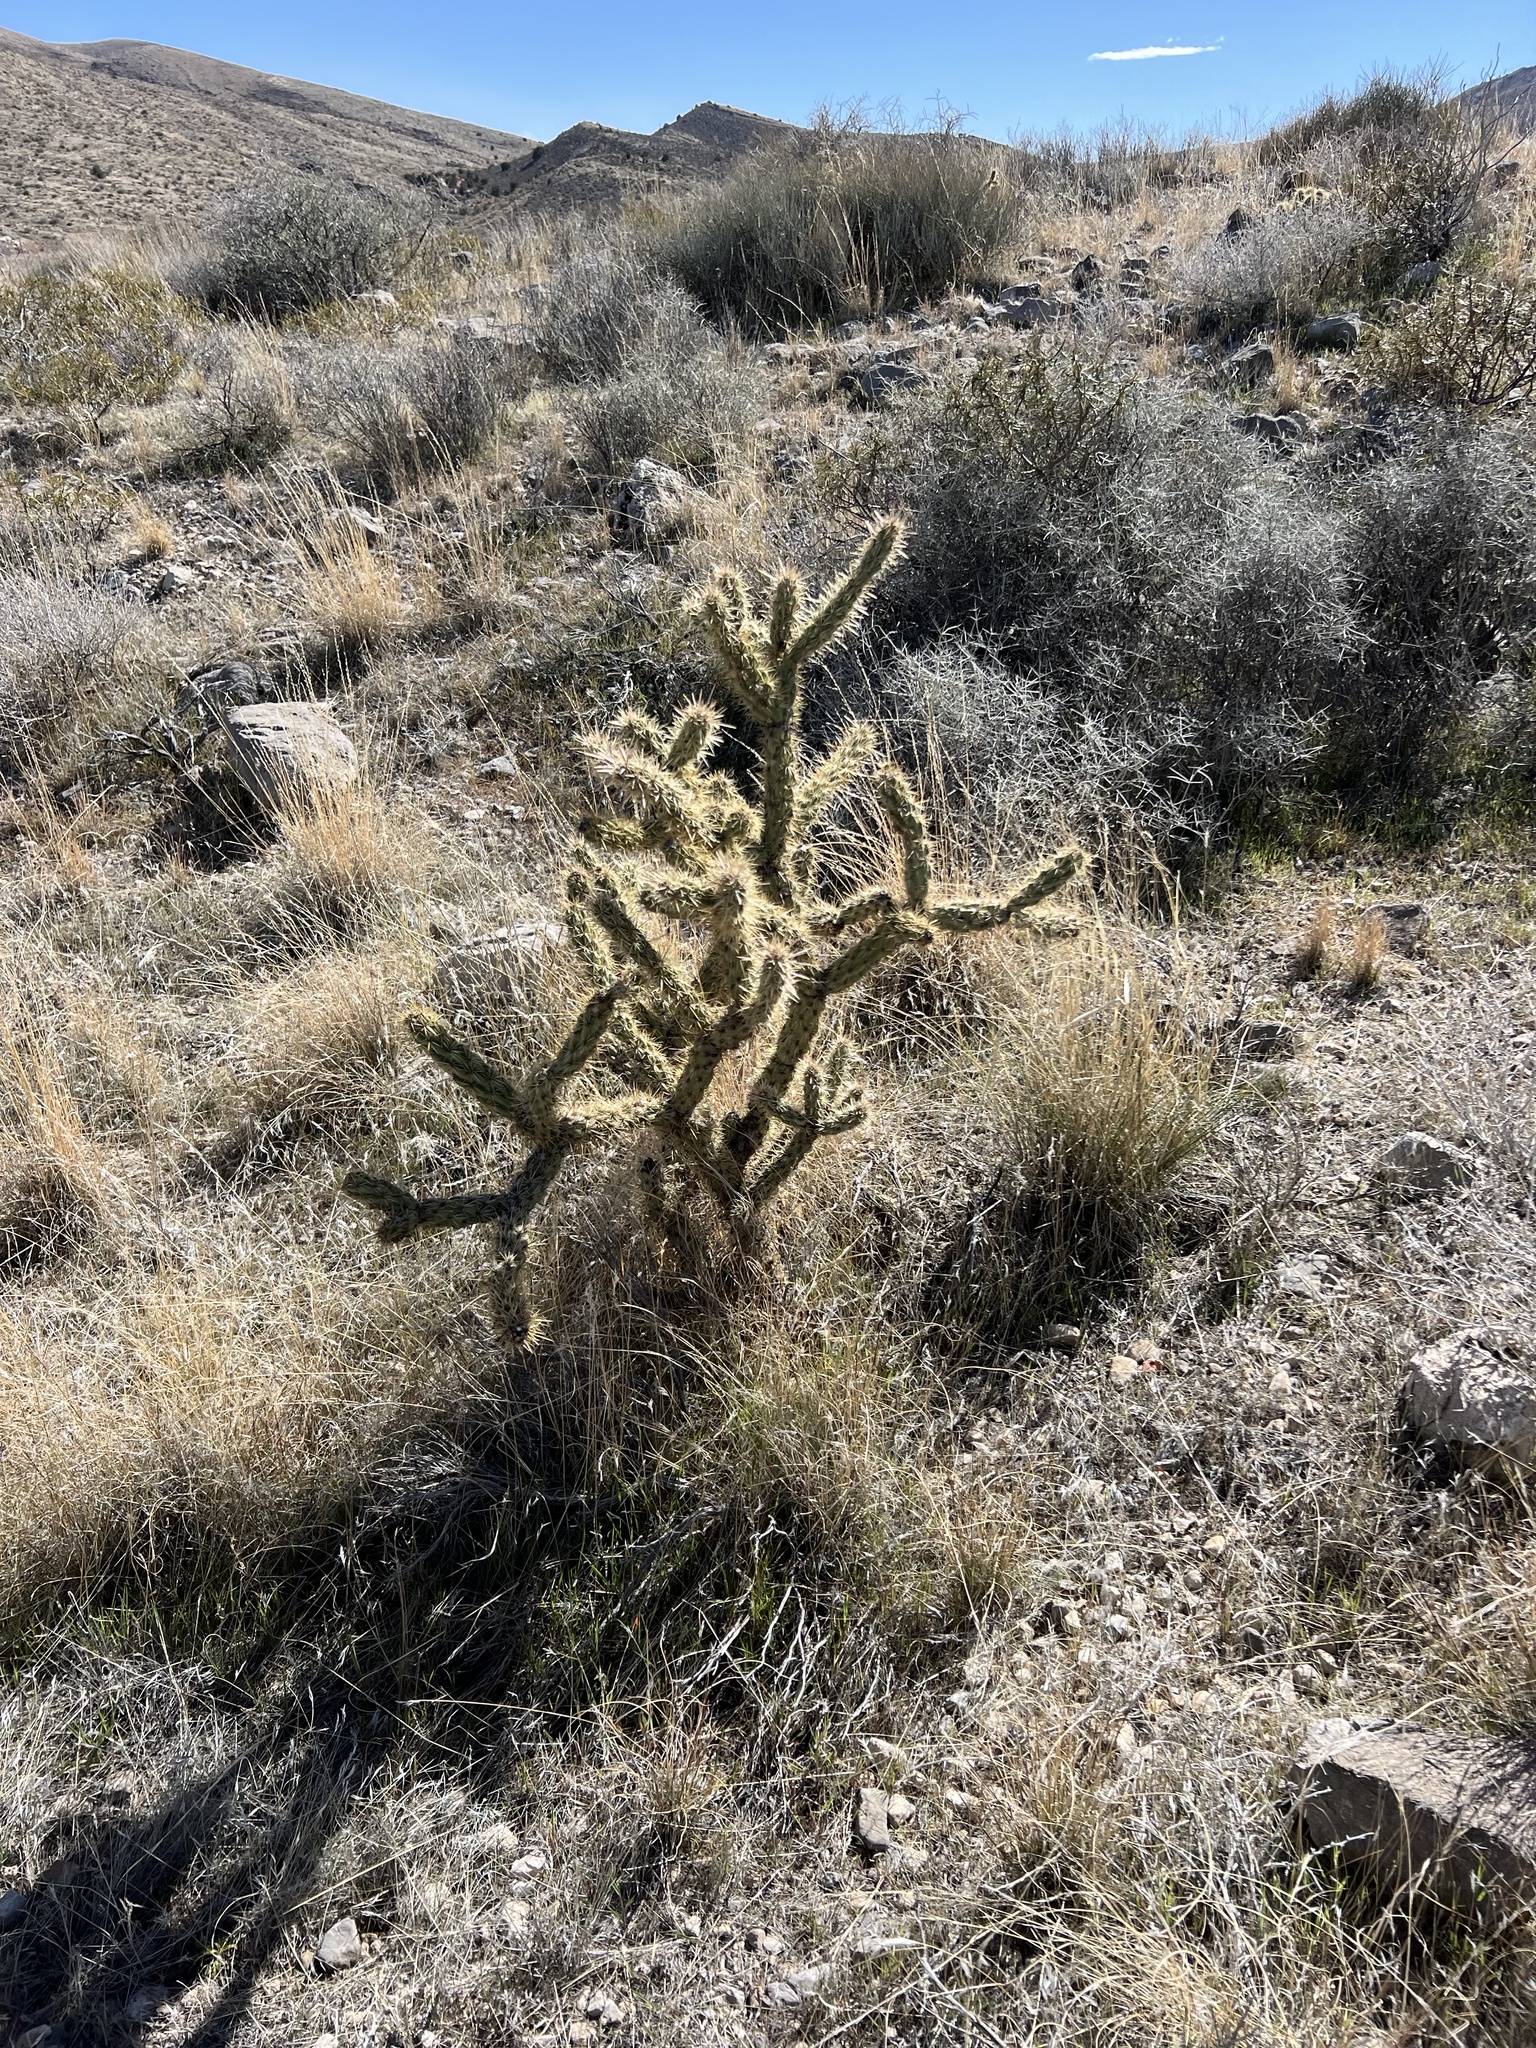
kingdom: Plantae
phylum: Tracheophyta
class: Magnoliopsida
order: Caryophyllales
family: Cactaceae
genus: Cylindropuntia
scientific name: Cylindropuntia acanthocarpa
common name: Buckhorn cholla
